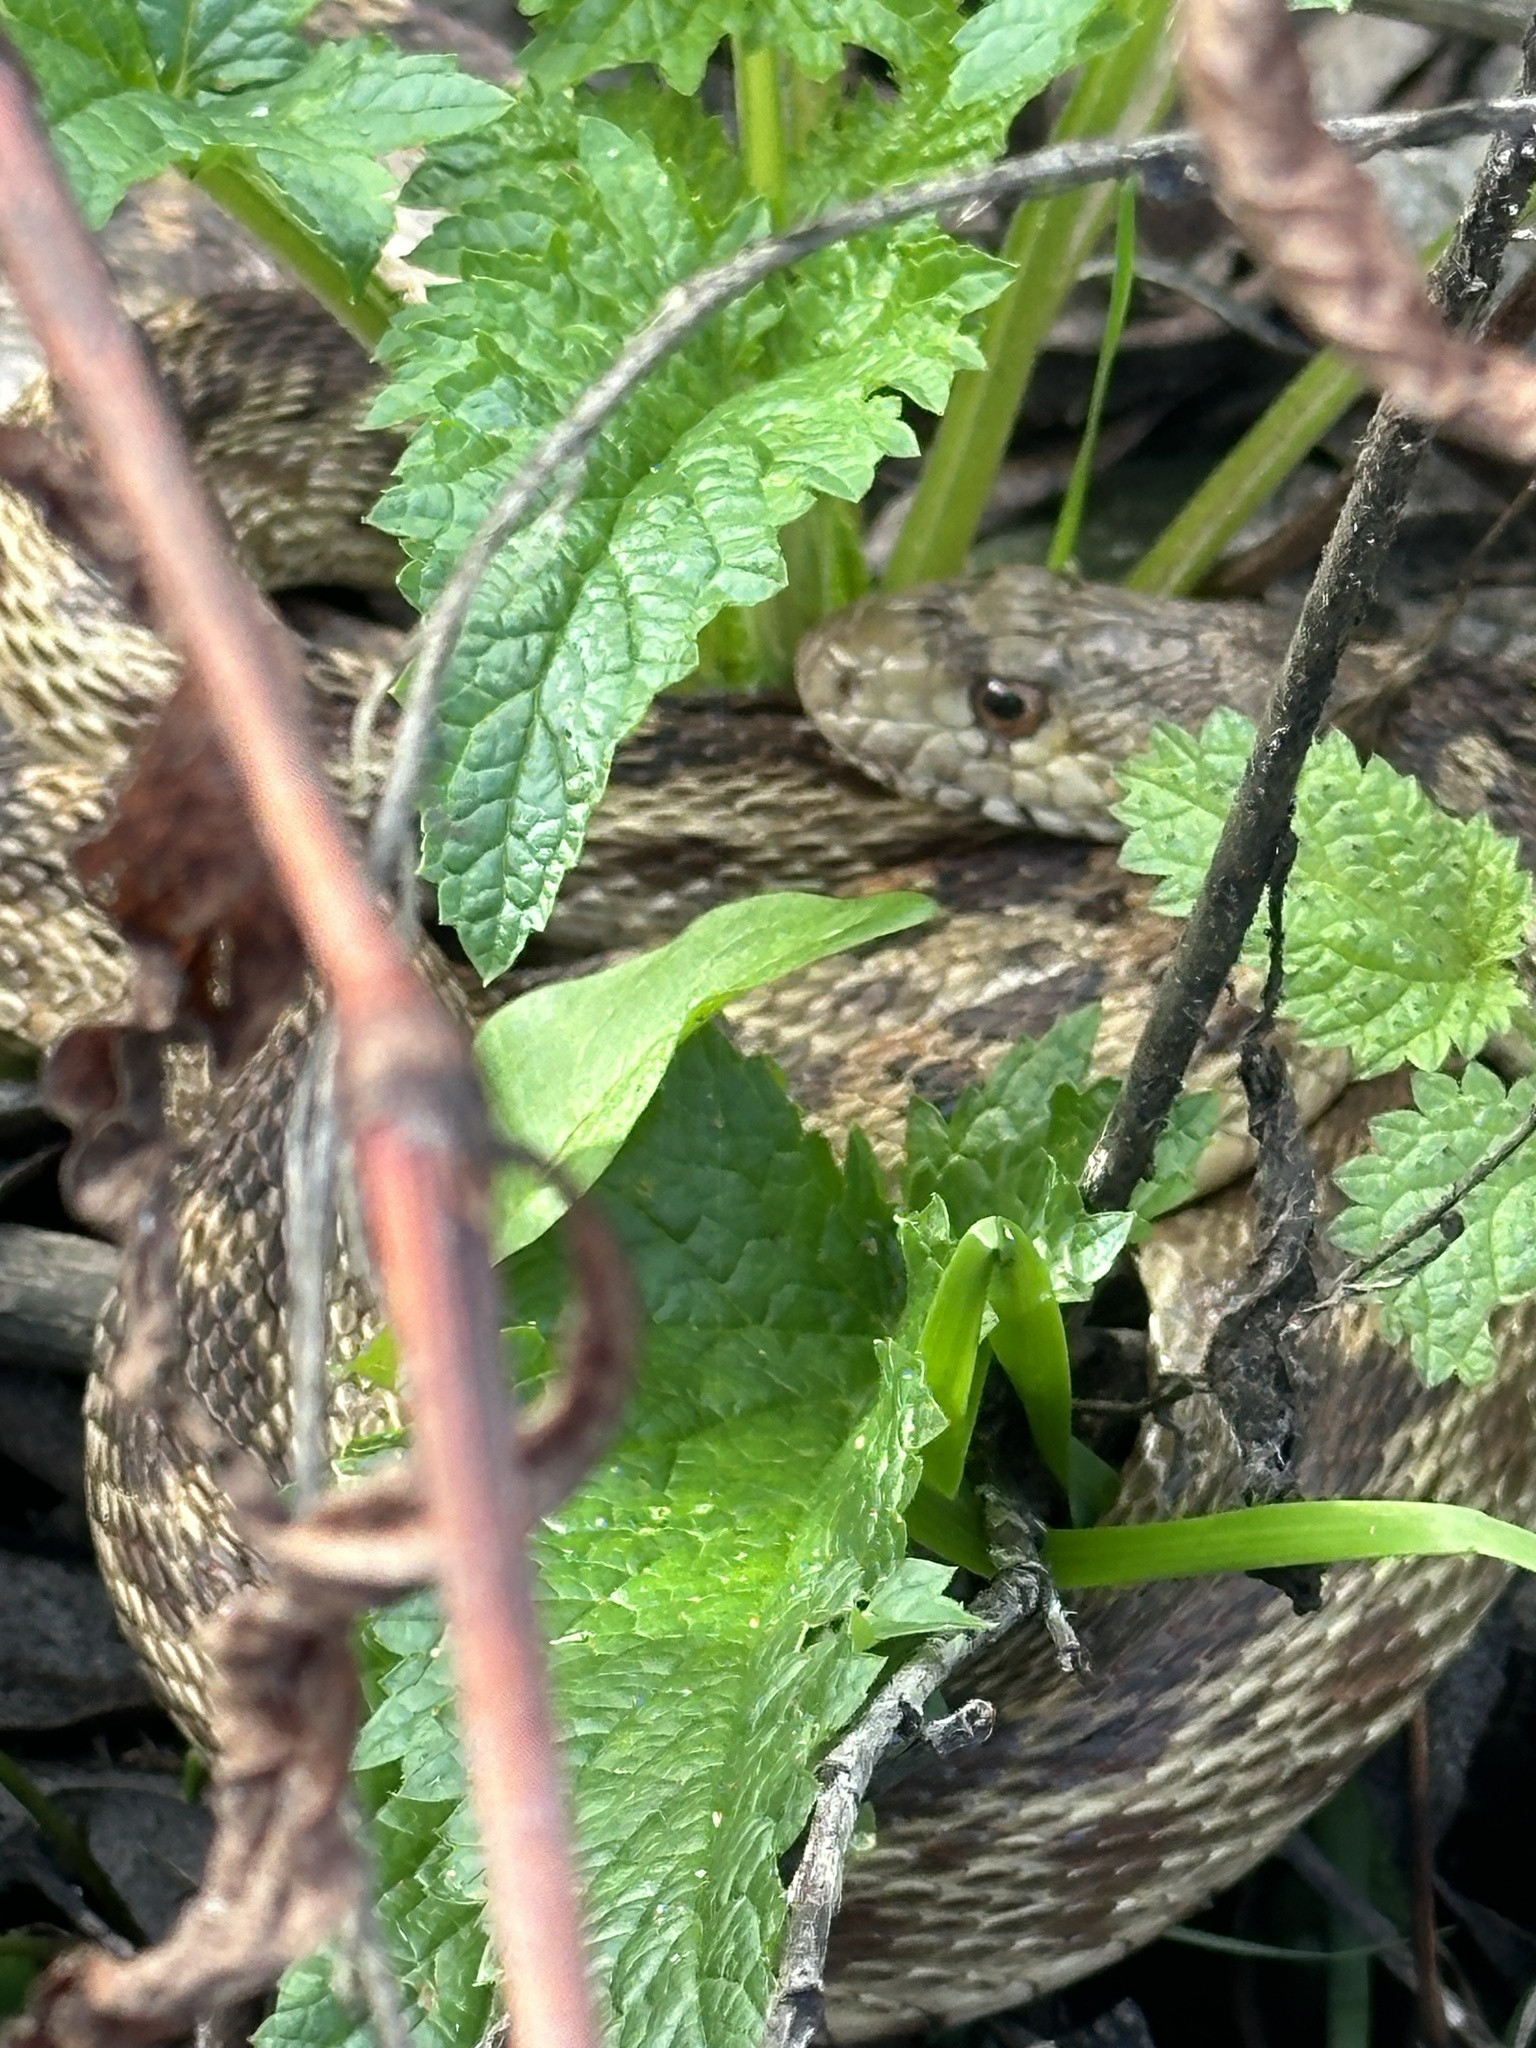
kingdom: Animalia
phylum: Chordata
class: Squamata
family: Colubridae
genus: Pituophis
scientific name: Pituophis catenifer
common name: Gopher snake
